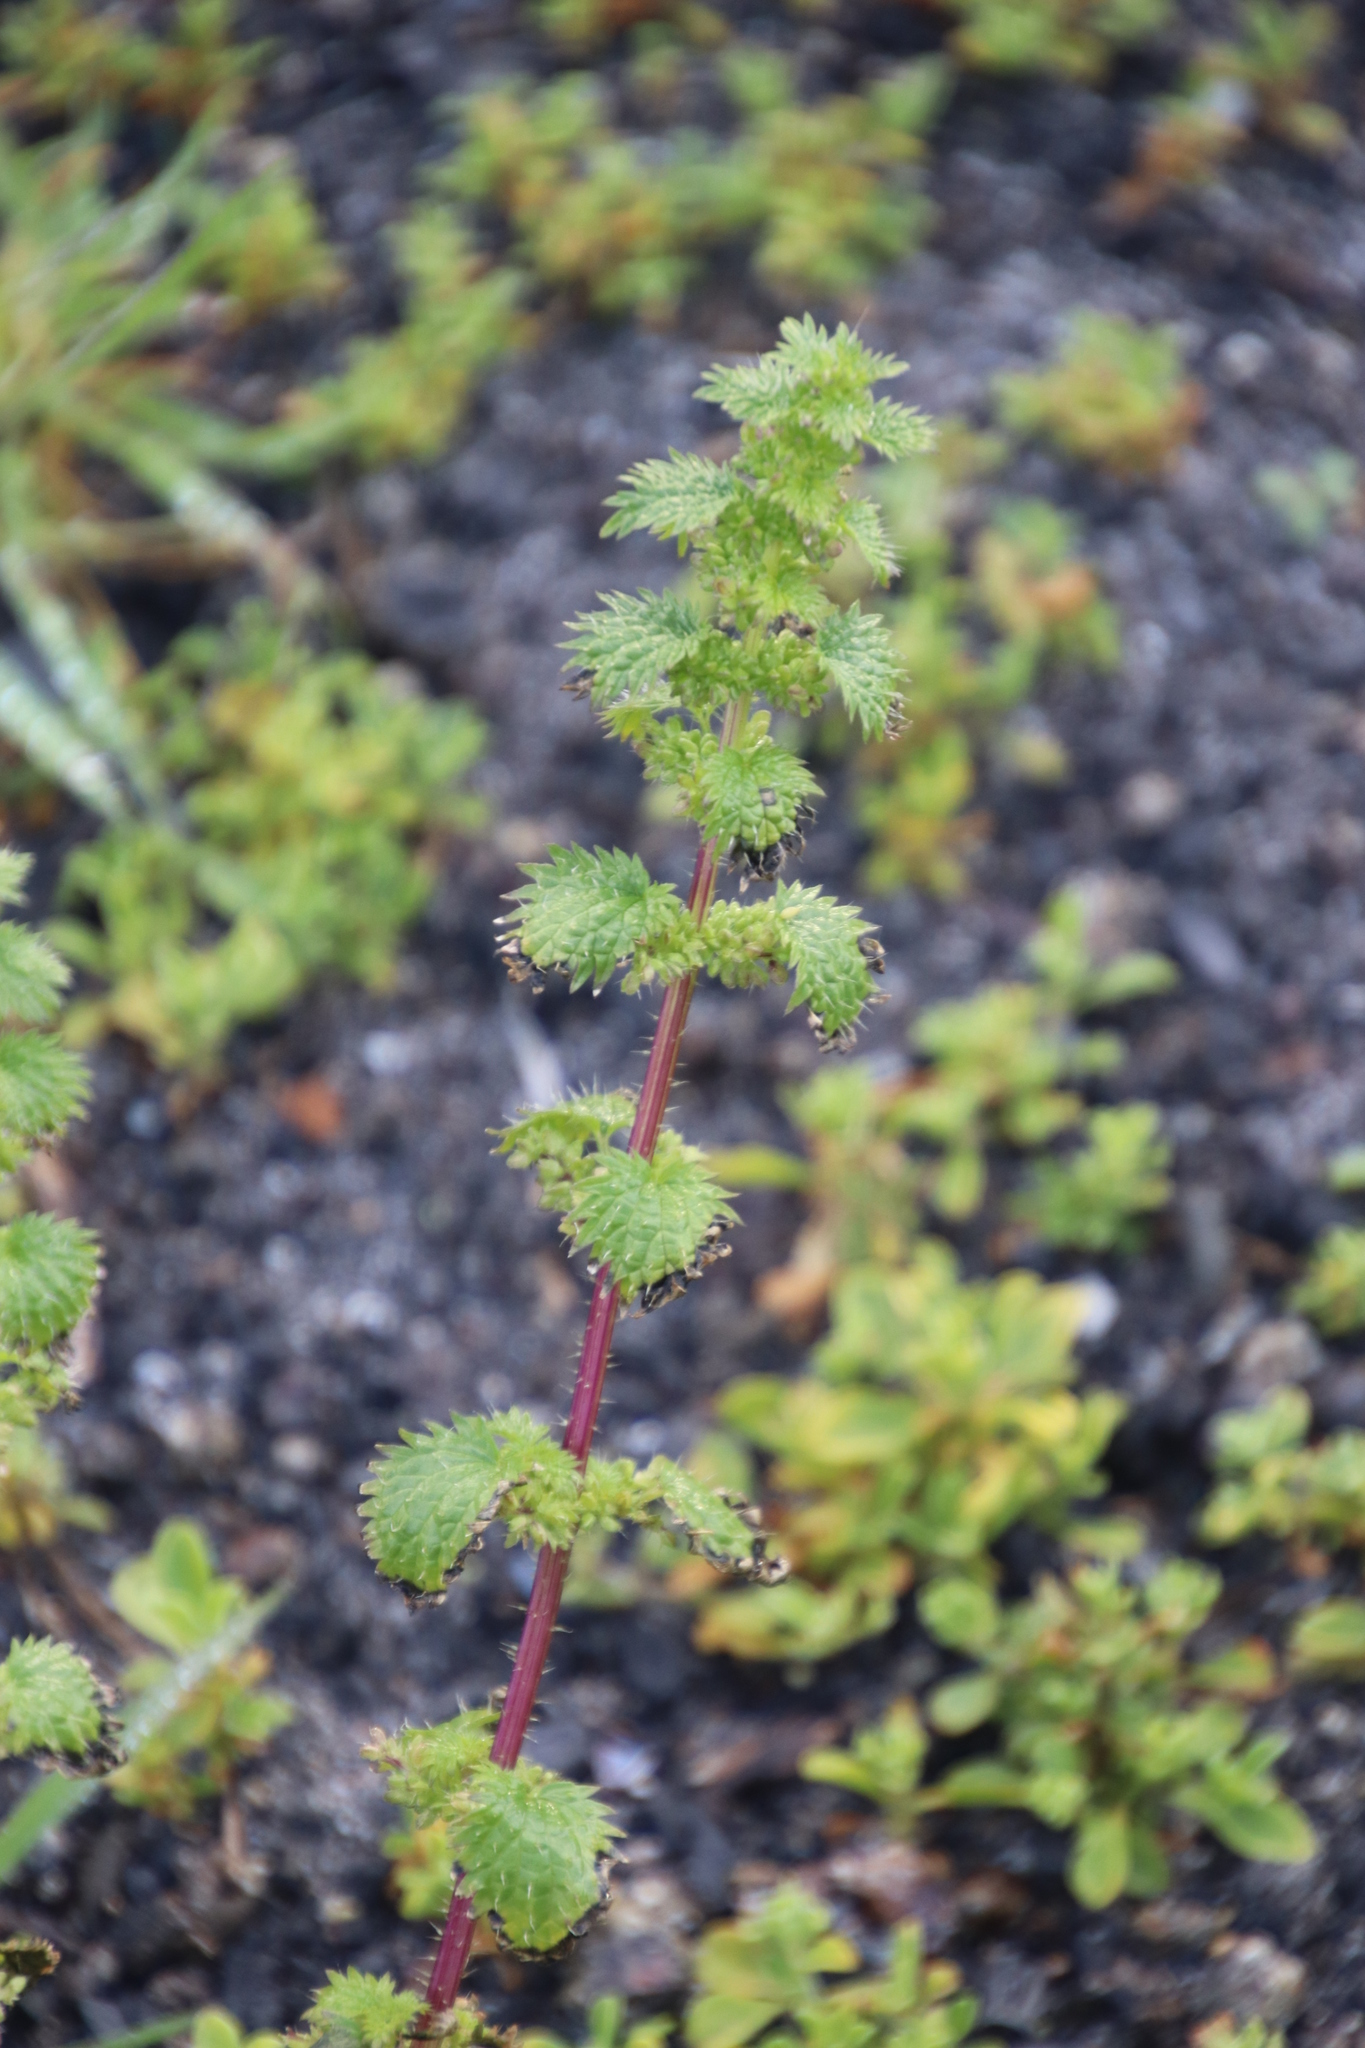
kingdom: Plantae
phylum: Tracheophyta
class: Magnoliopsida
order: Rosales
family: Urticaceae
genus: Urtica
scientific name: Urtica urens
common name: Dwarf nettle
